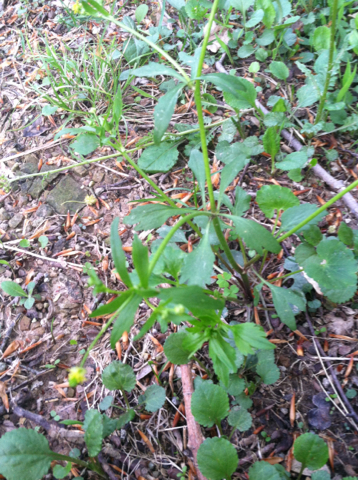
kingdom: Plantae
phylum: Tracheophyta
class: Magnoliopsida
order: Ranunculales
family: Ranunculaceae
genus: Ranunculus
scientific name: Ranunculus abortivus
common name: Early wood buttercup
